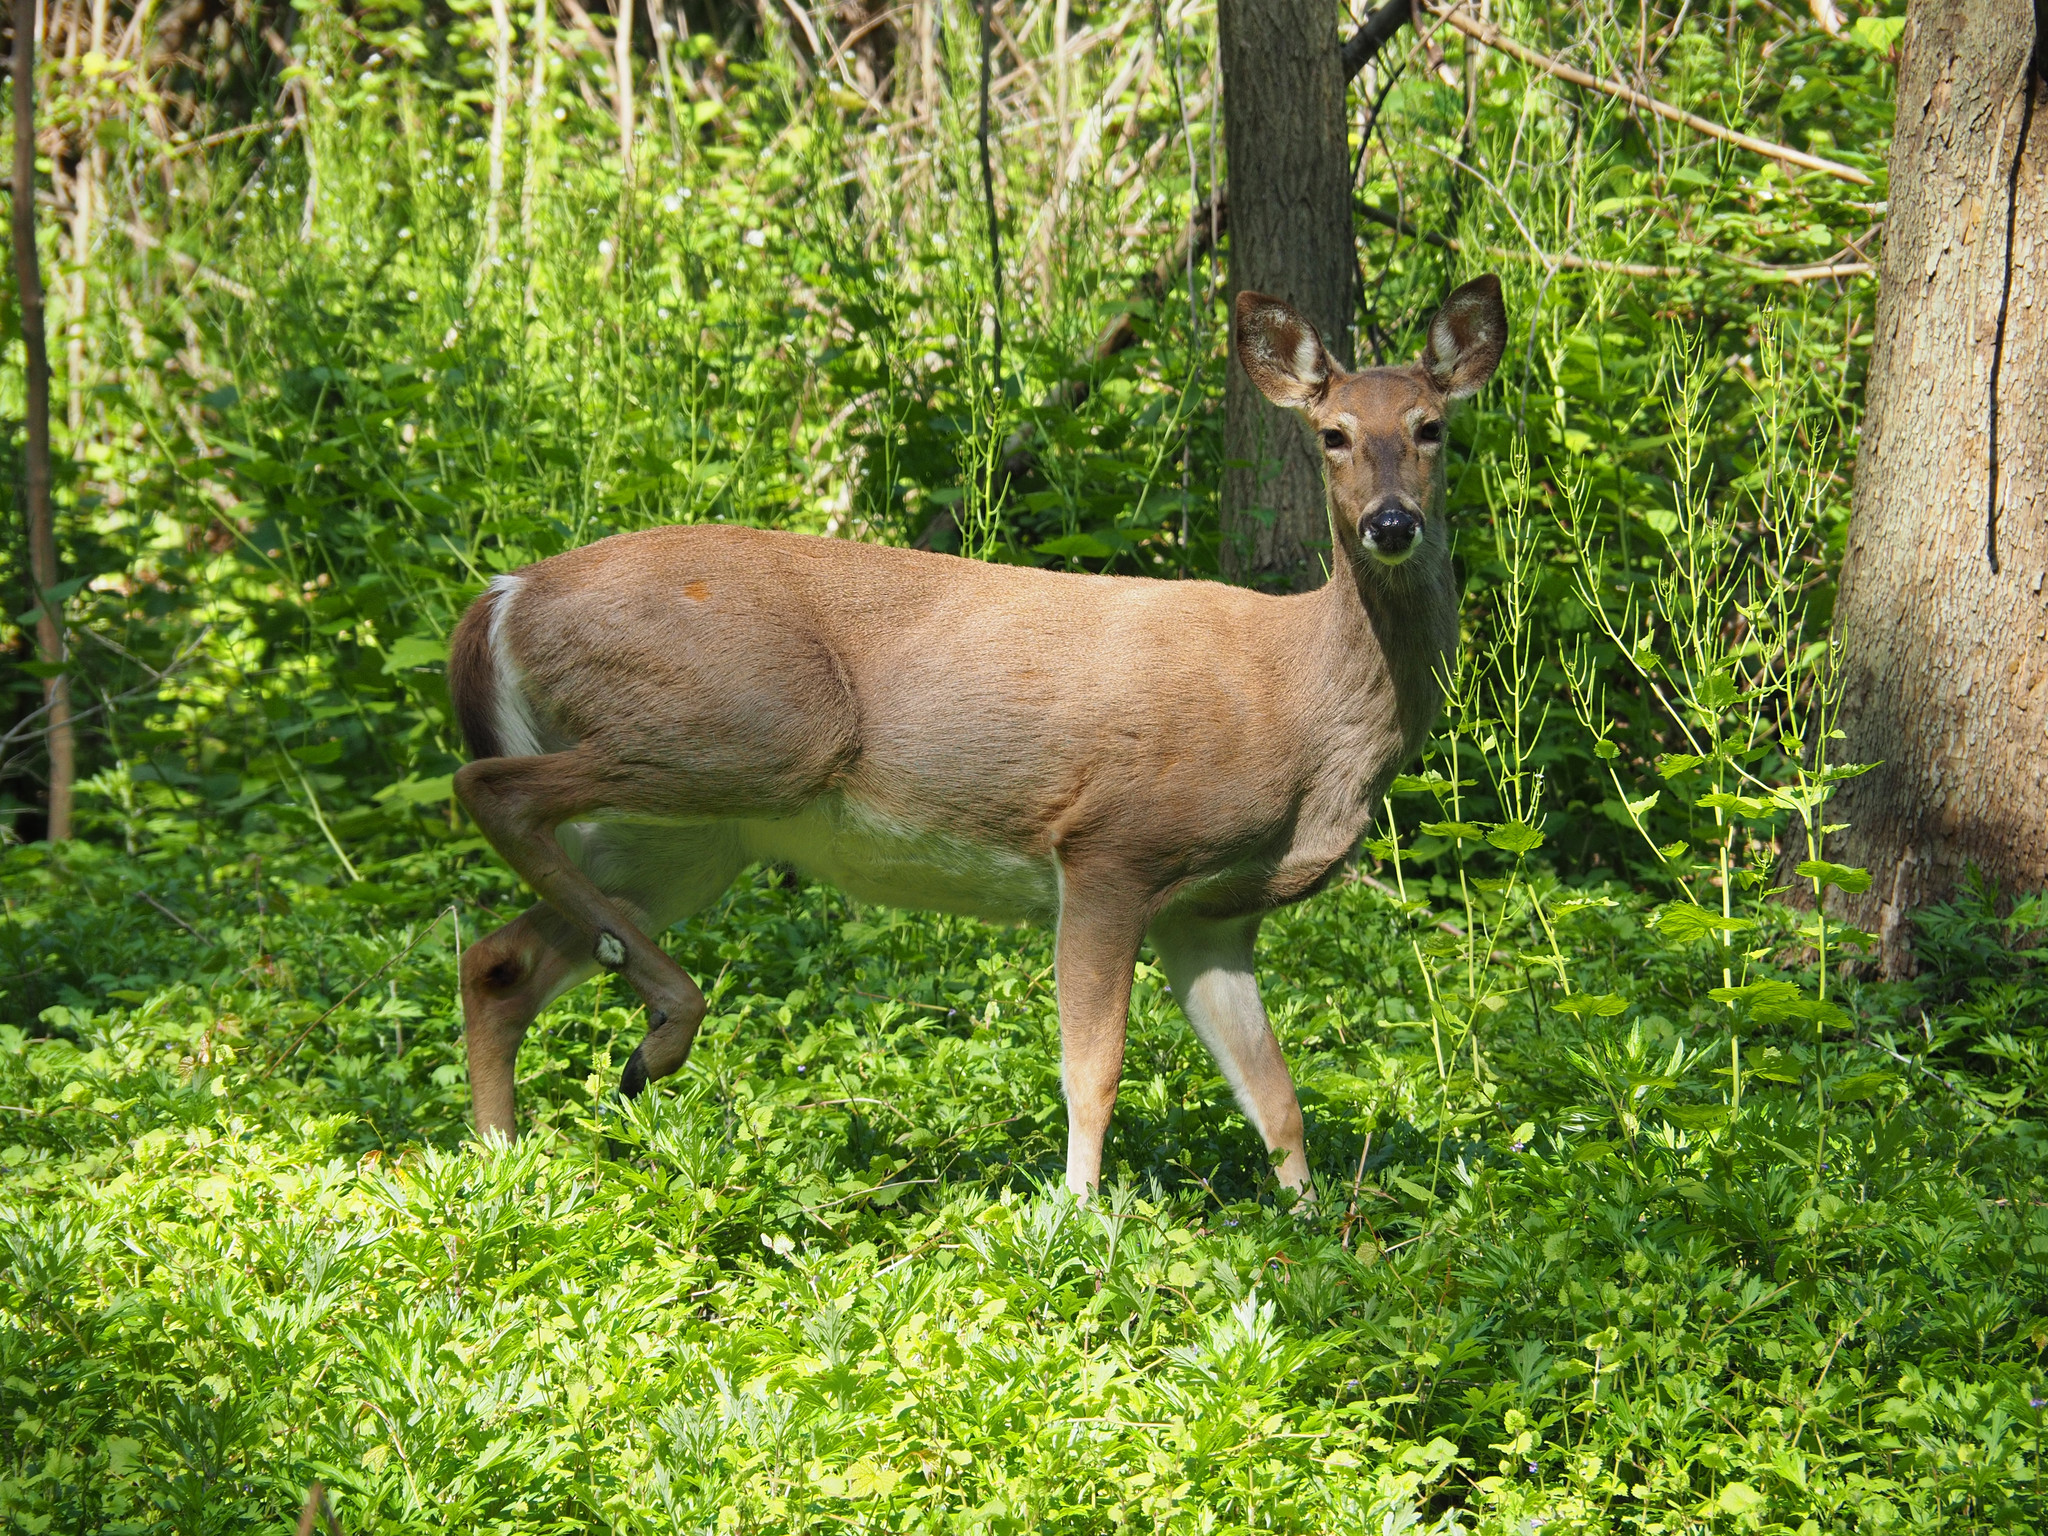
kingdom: Animalia
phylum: Chordata
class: Mammalia
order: Artiodactyla
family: Cervidae
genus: Odocoileus
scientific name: Odocoileus virginianus
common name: White-tailed deer
